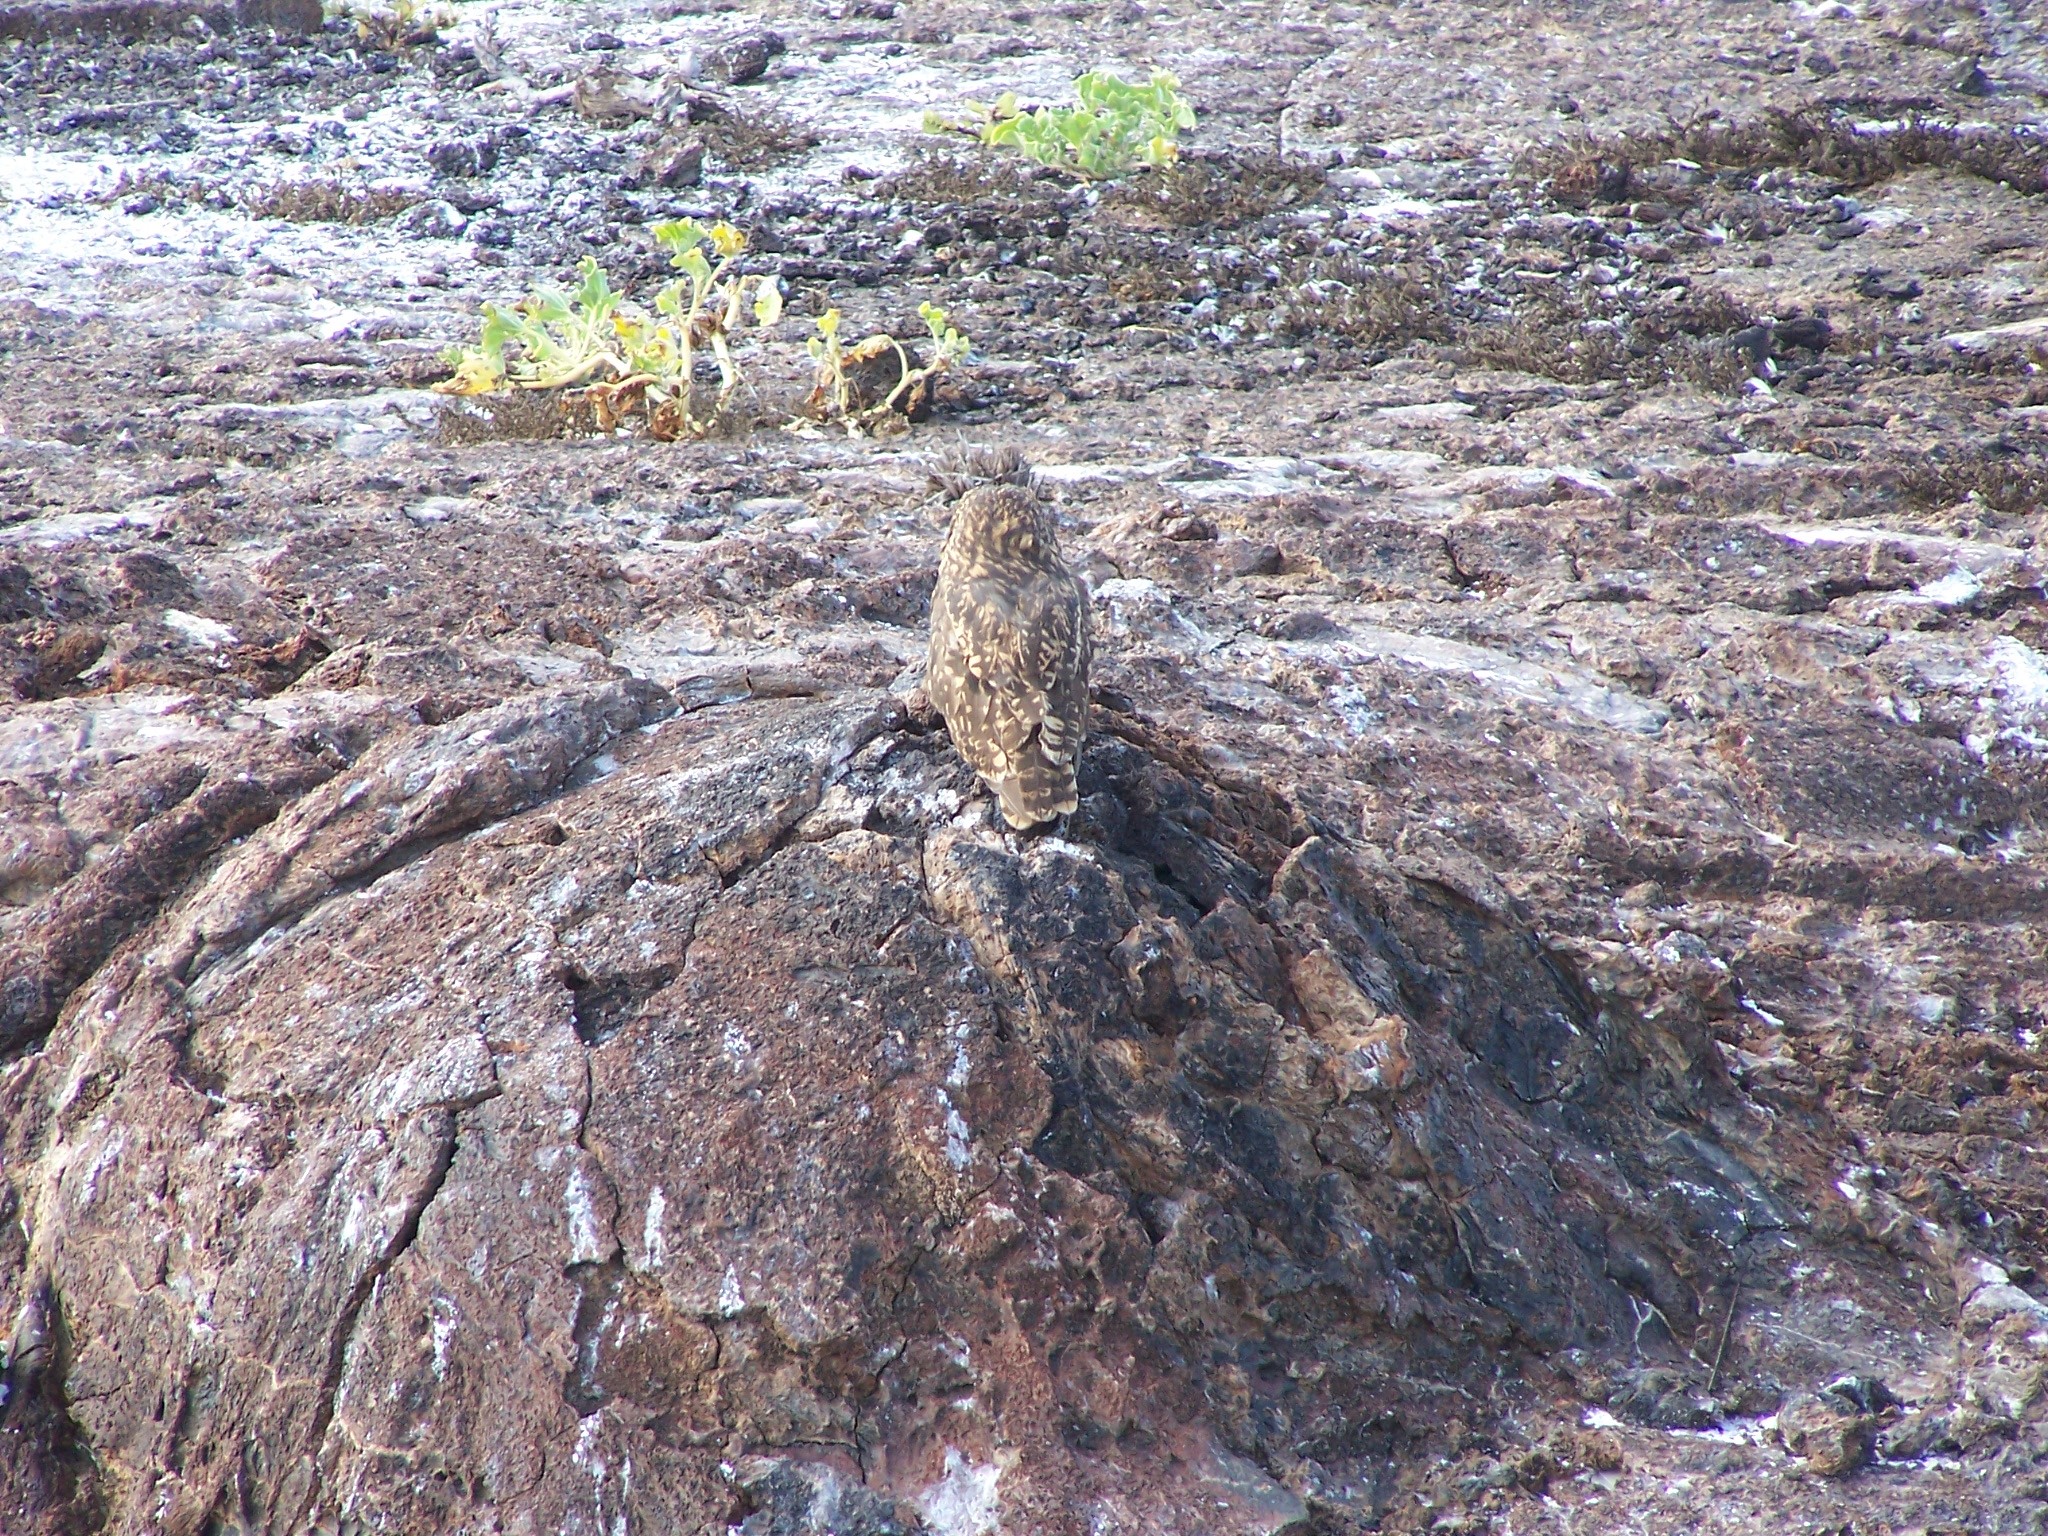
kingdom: Animalia
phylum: Chordata
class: Aves
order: Strigiformes
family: Strigidae
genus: Asio
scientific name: Asio flammeus
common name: Short-eared owl
